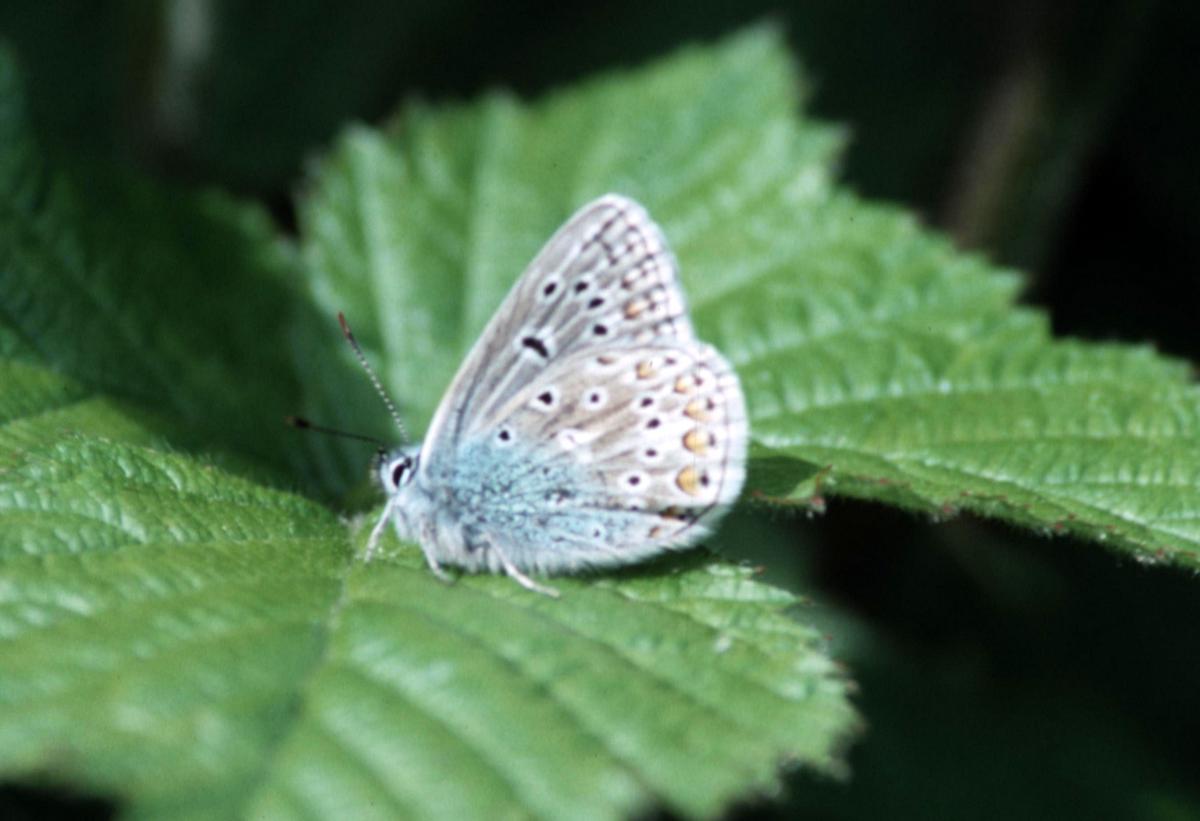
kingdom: Animalia
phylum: Arthropoda
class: Insecta
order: Lepidoptera
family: Lycaenidae
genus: Polyommatus
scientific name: Polyommatus icarus
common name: Common blue
